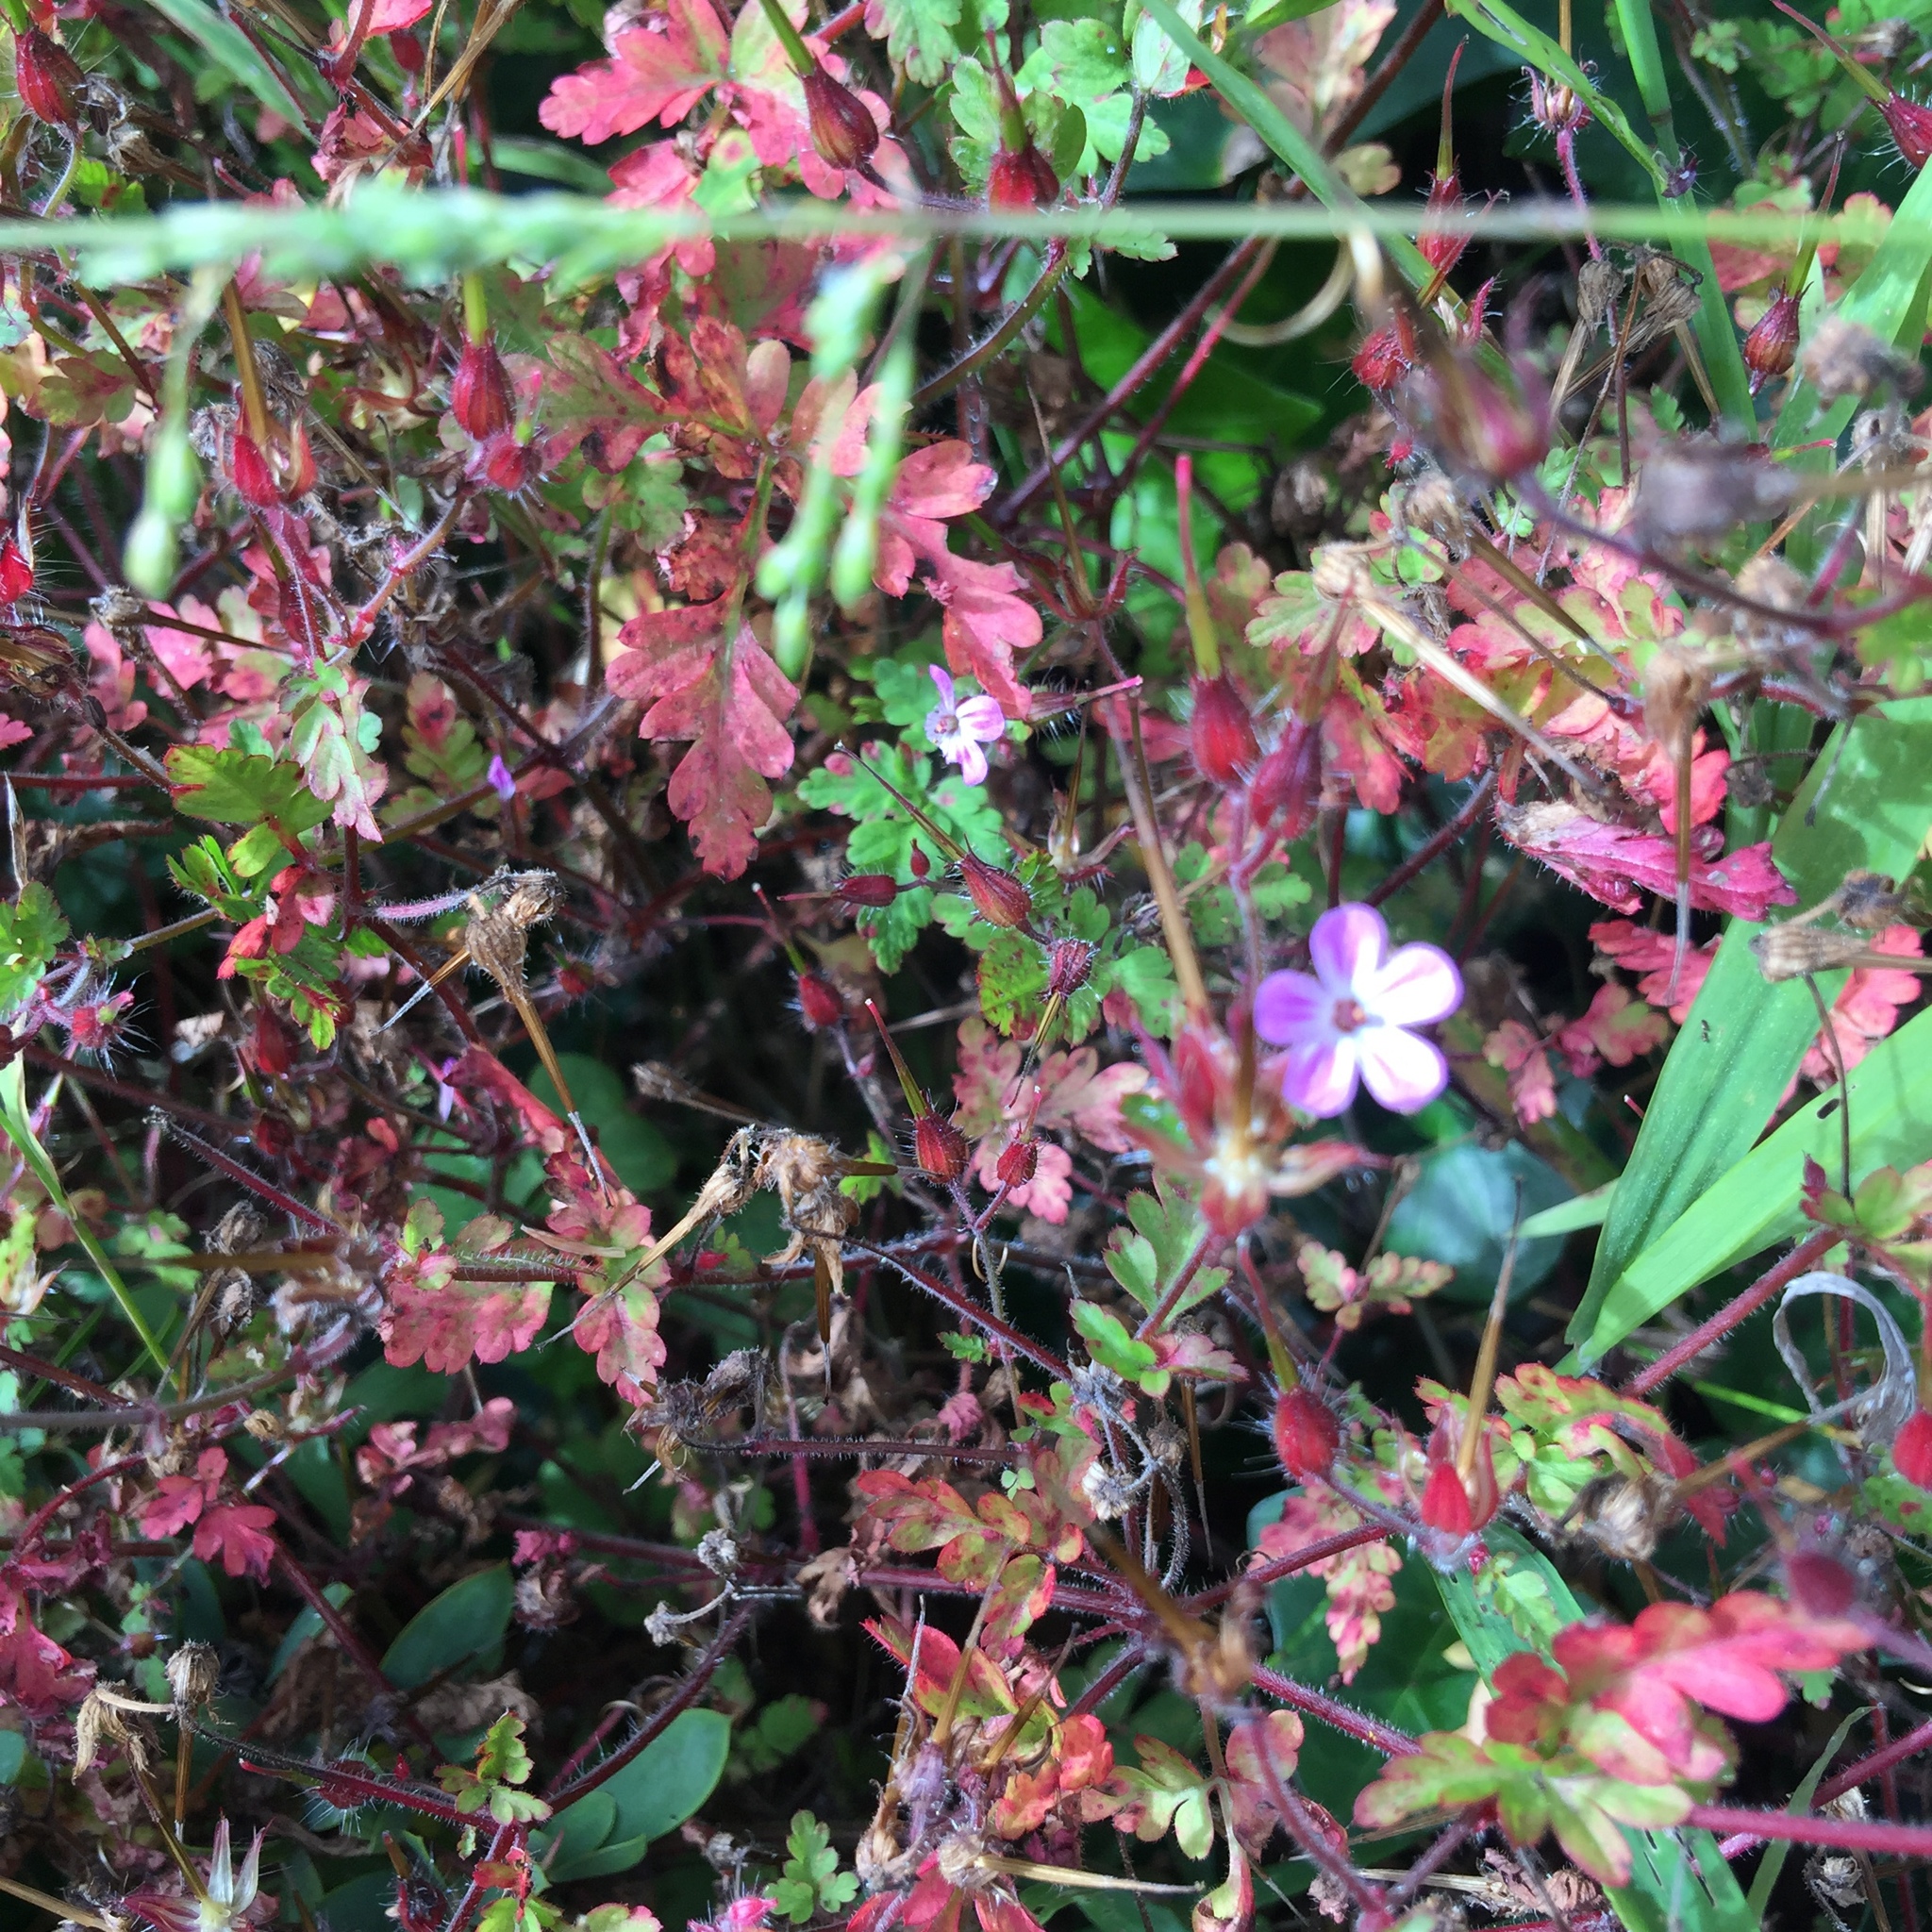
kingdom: Plantae
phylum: Tracheophyta
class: Magnoliopsida
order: Geraniales
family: Geraniaceae
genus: Geranium
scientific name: Geranium robertianum
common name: Herb-robert
